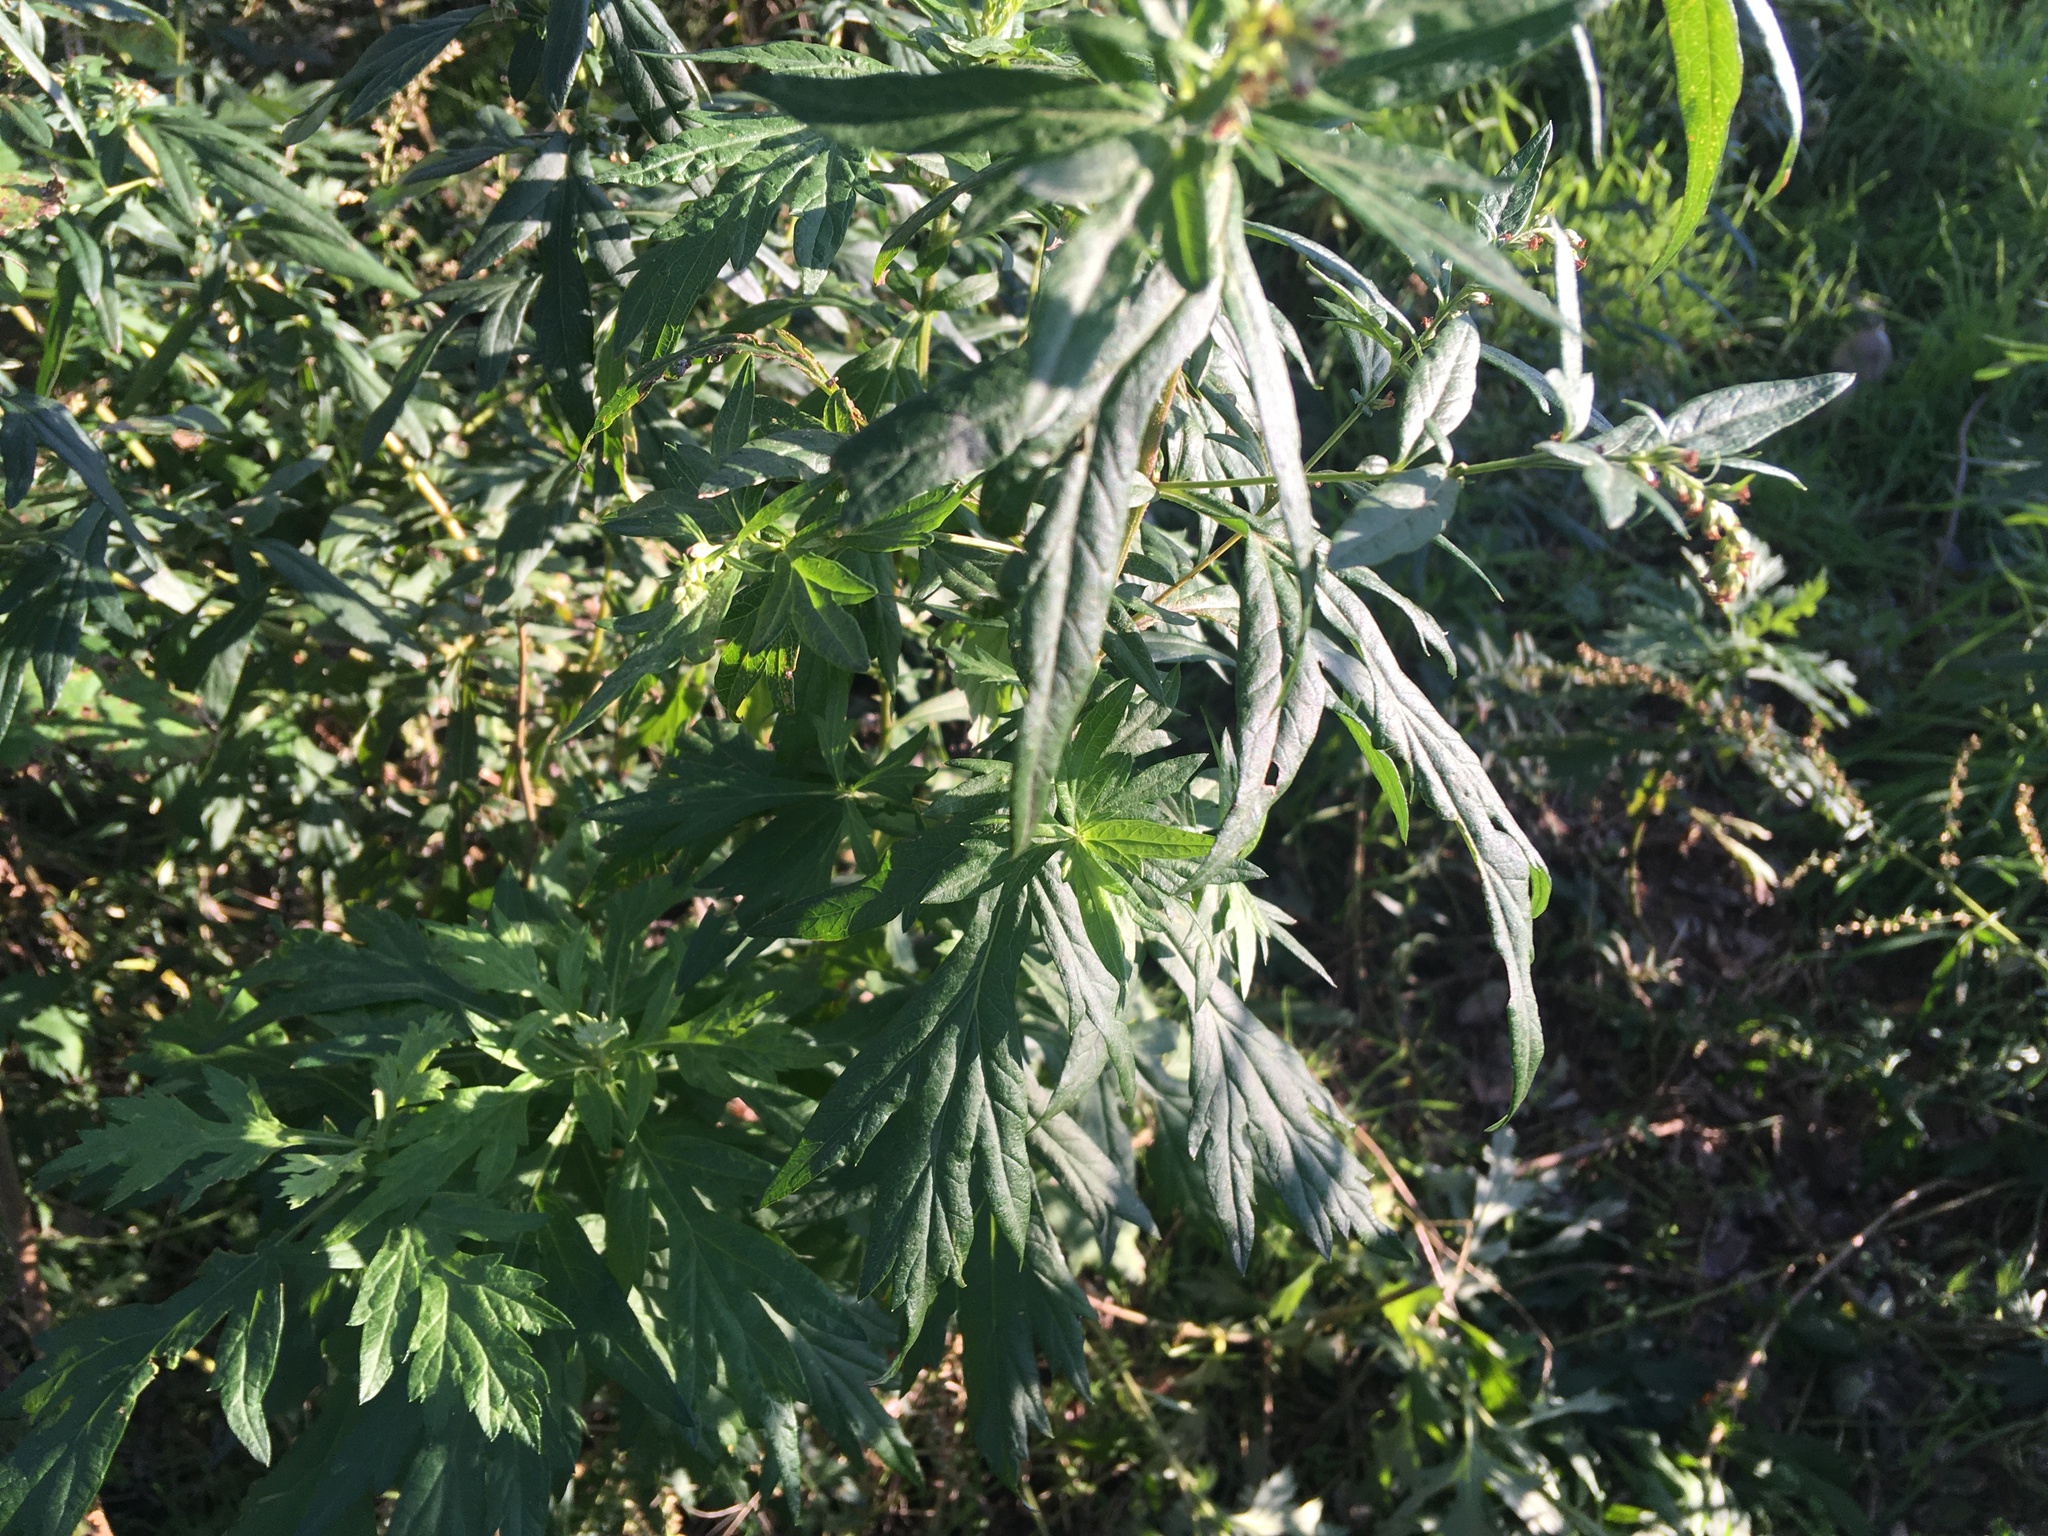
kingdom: Plantae
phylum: Tracheophyta
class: Magnoliopsida
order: Asterales
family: Asteraceae
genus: Artemisia
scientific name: Artemisia vulgaris
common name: Mugwort
